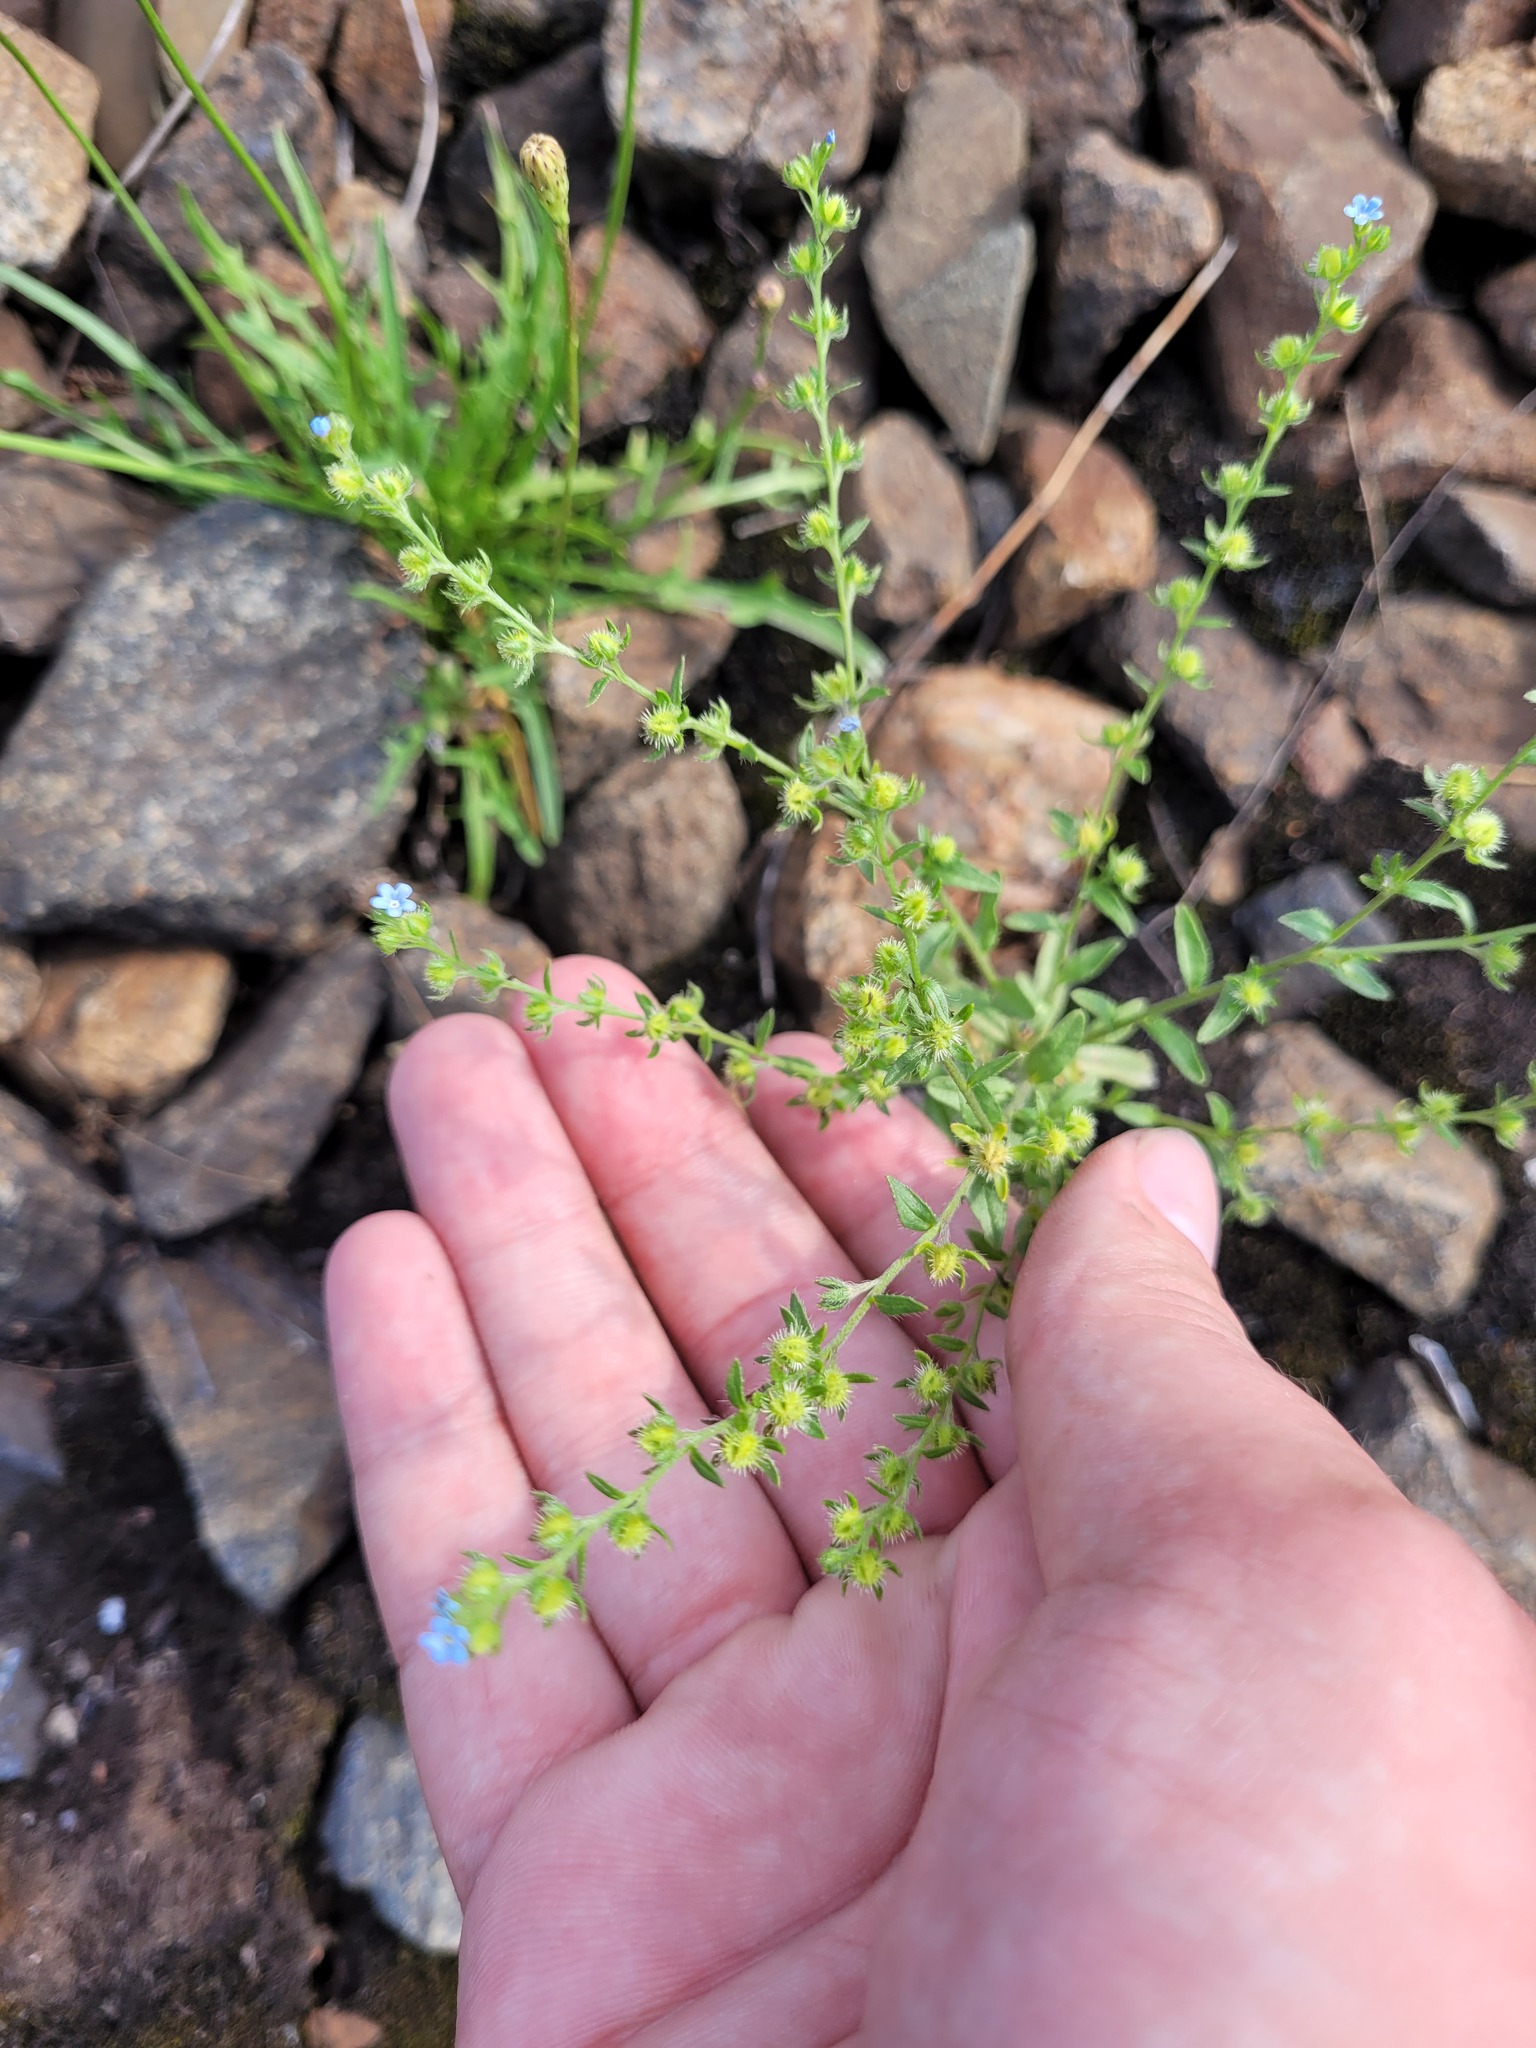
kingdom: Plantae
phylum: Tracheophyta
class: Magnoliopsida
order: Boraginales
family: Boraginaceae
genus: Lappula
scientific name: Lappula squarrosa
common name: European stickseed
